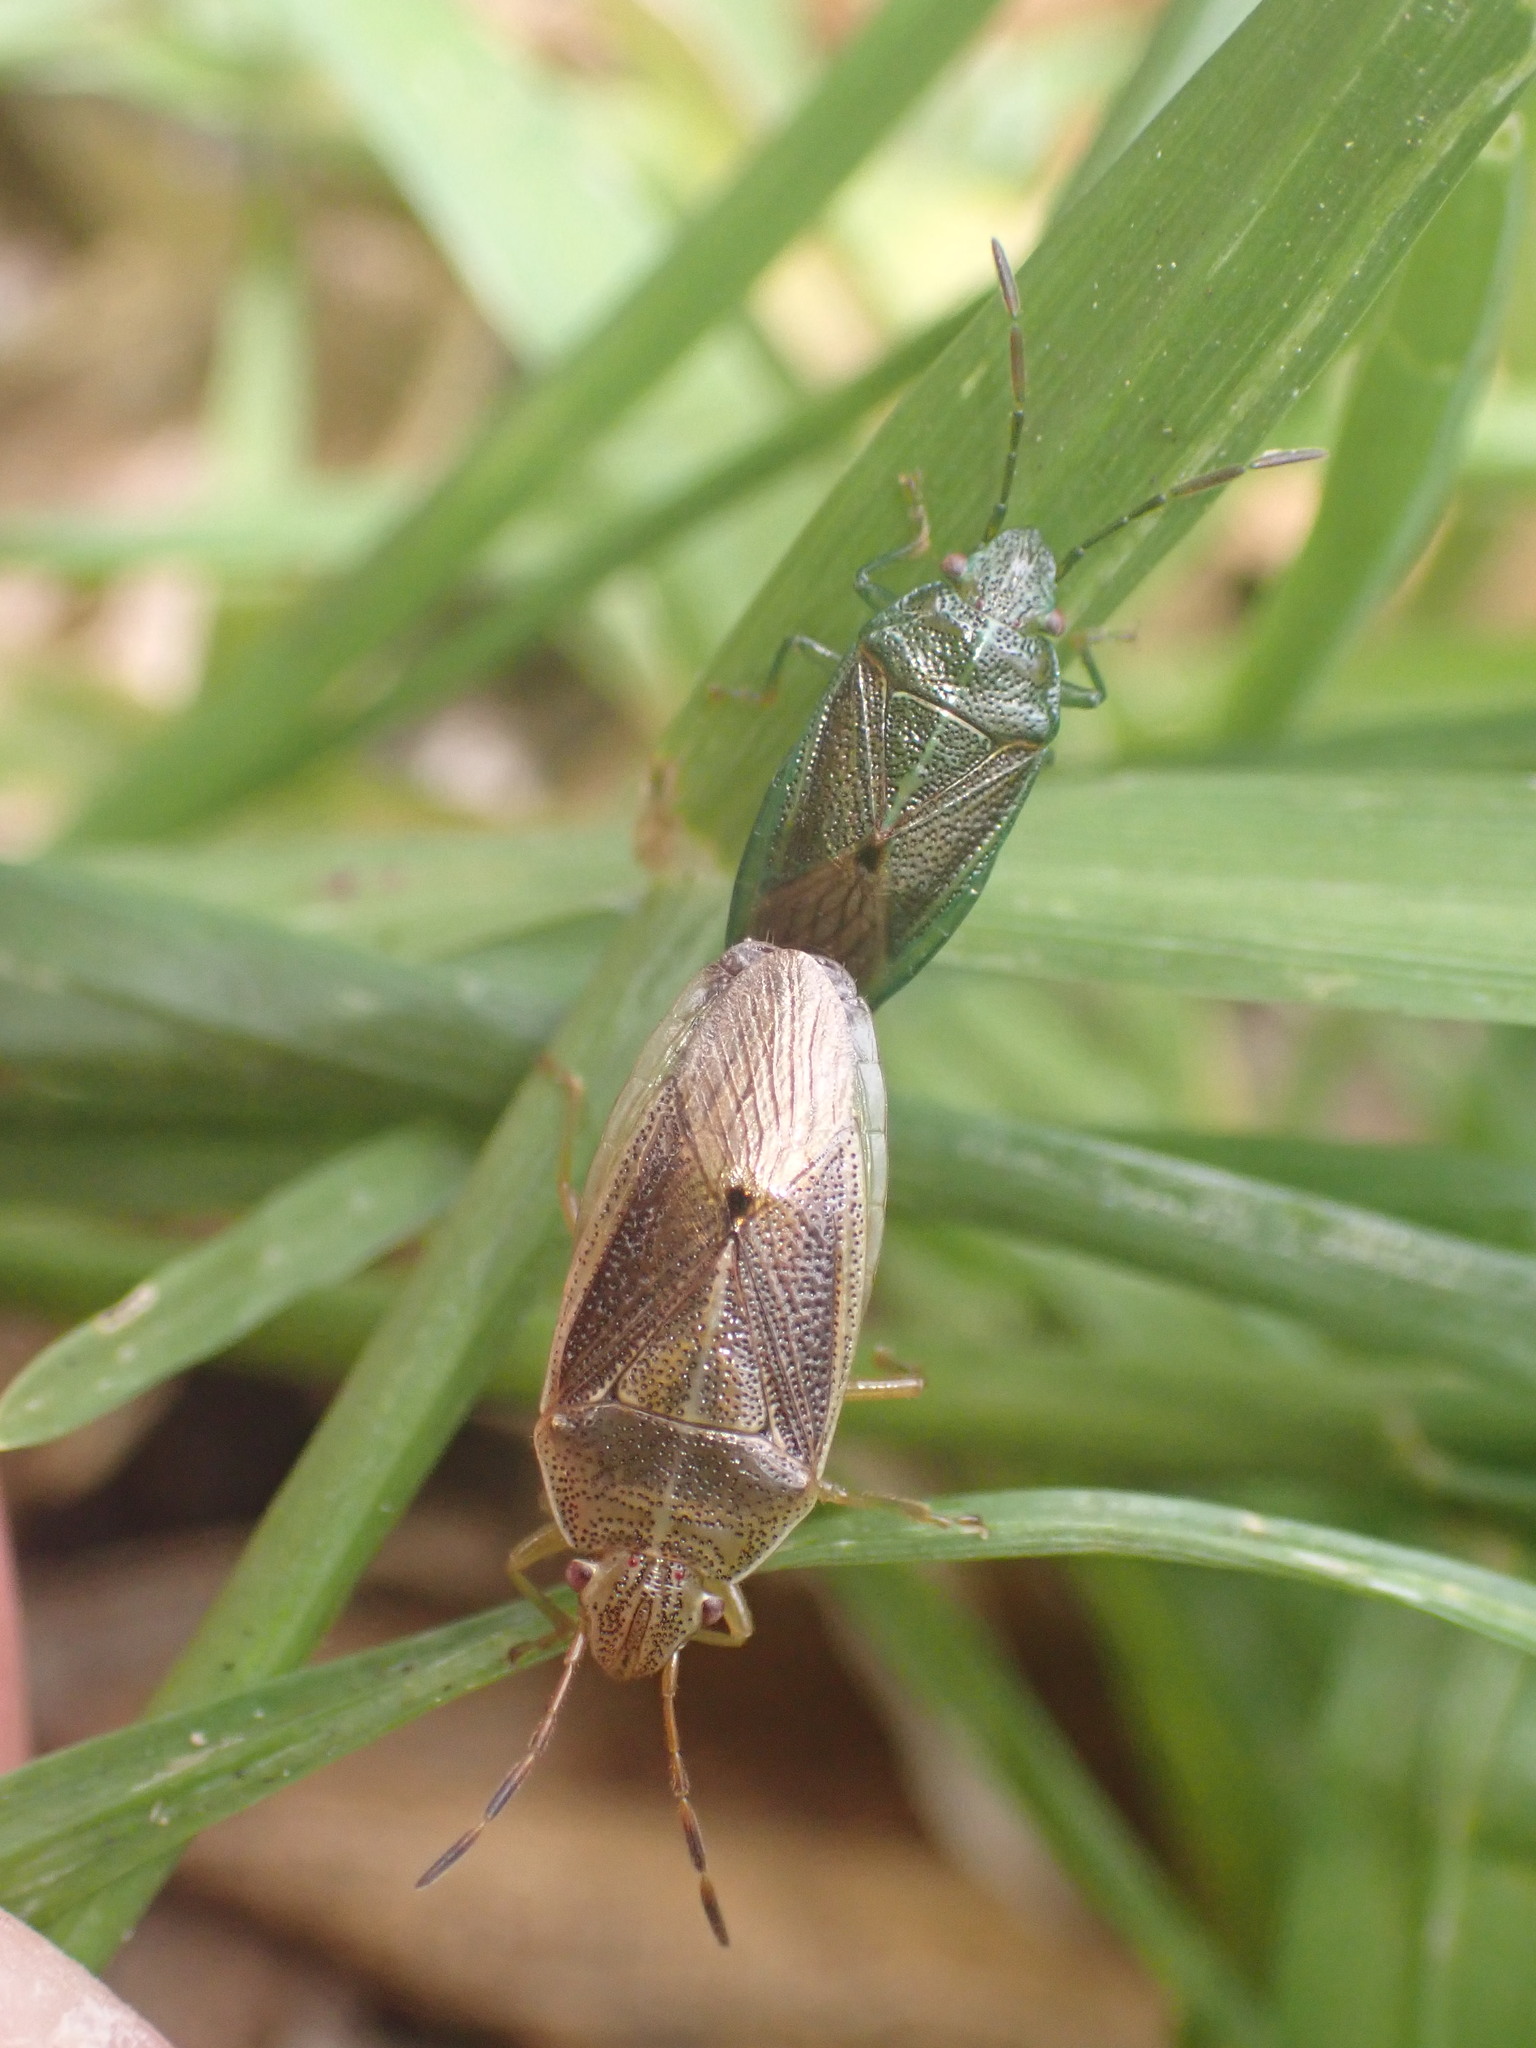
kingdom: Animalia
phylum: Arthropoda
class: Insecta
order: Hemiptera
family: Acanthosomatidae
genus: Rhopalimorpha
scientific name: Rhopalimorpha obscura
